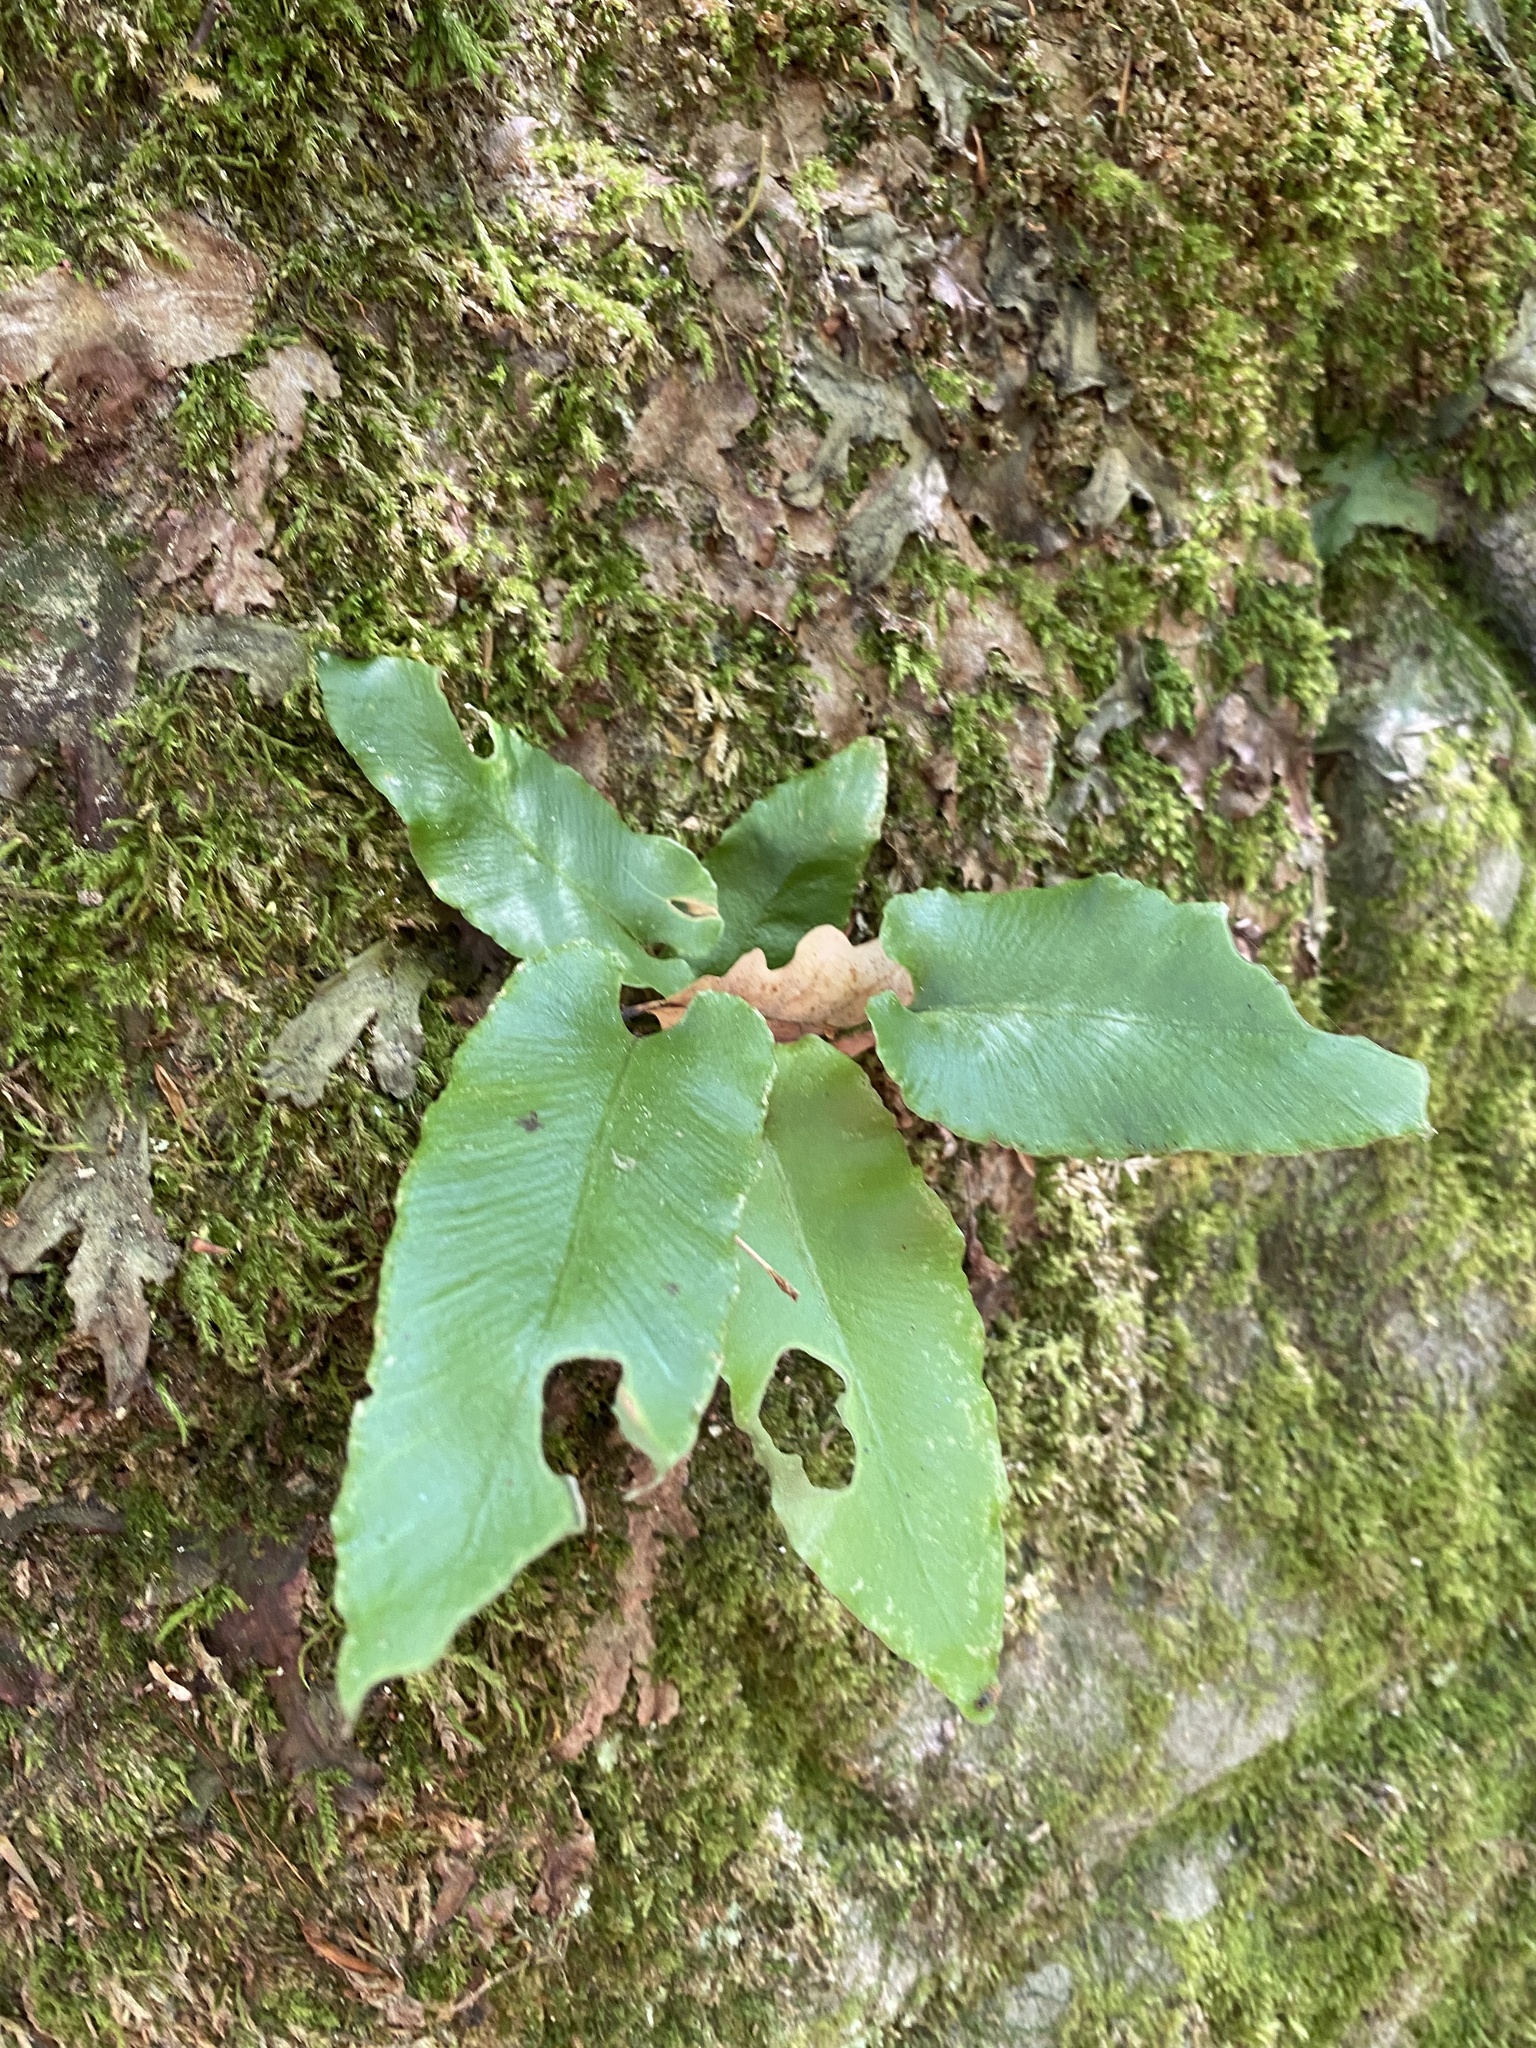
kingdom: Plantae
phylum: Tracheophyta
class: Polypodiopsida
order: Polypodiales
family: Aspleniaceae
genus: Asplenium
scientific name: Asplenium scolopendrium
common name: Hart's-tongue fern
